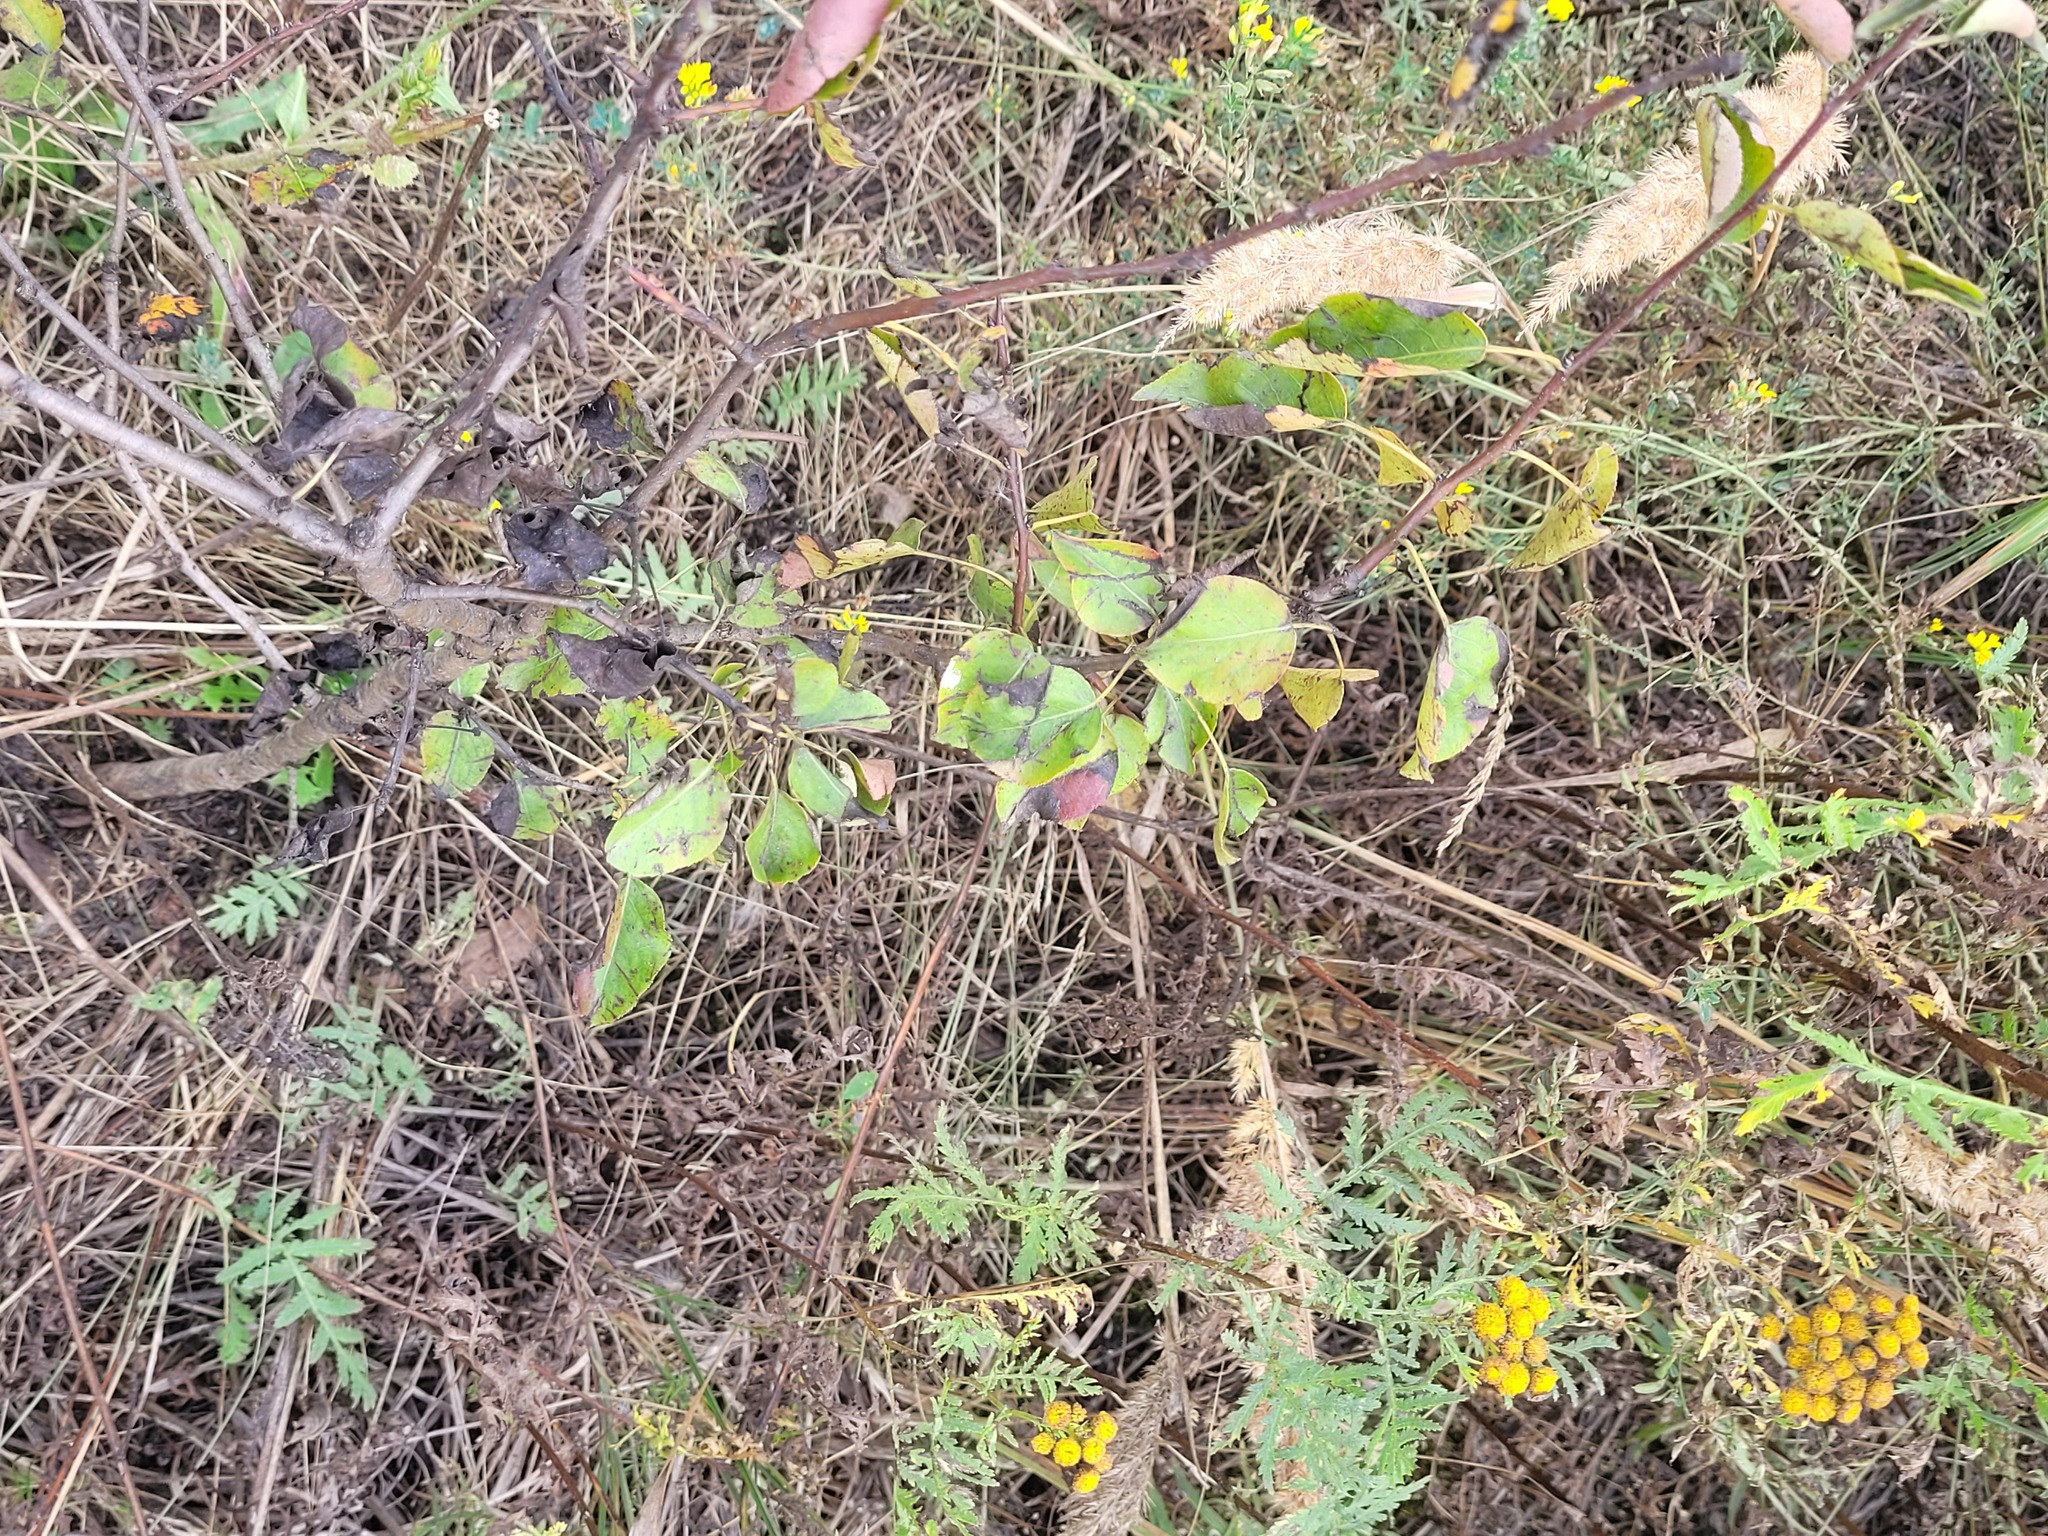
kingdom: Plantae
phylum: Tracheophyta
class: Magnoliopsida
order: Rosales
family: Rosaceae
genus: Pyrus
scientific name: Pyrus communis
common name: Pear
